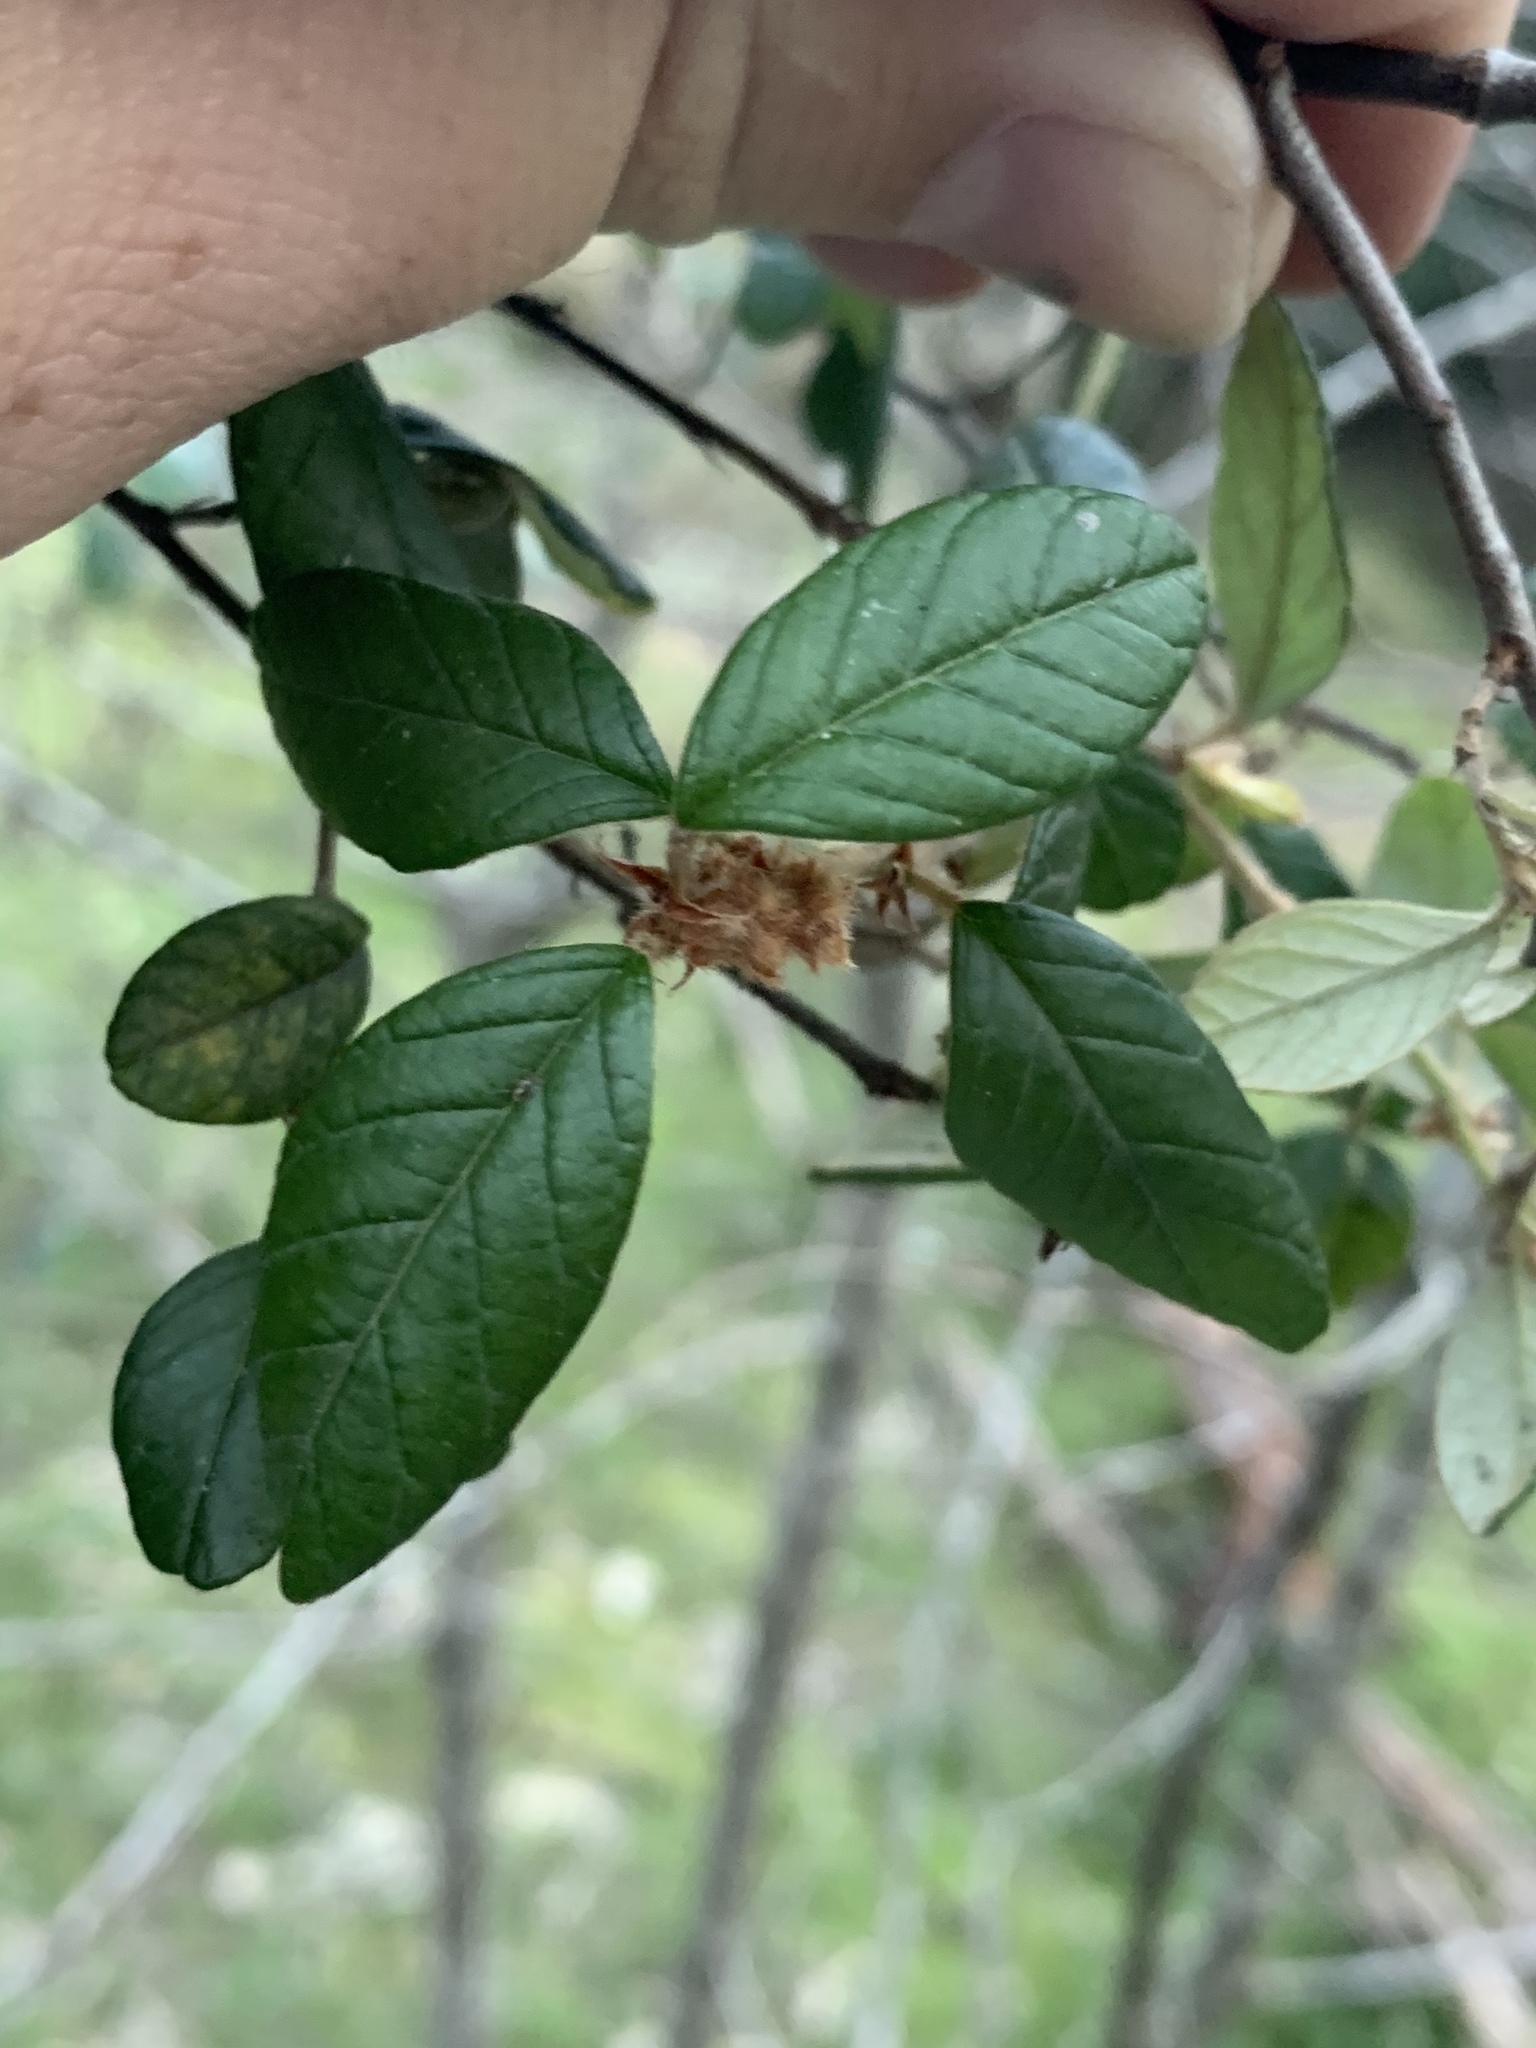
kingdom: Plantae
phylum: Tracheophyta
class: Magnoliopsida
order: Rosales
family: Rhamnaceae
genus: Pomaderris
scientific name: Pomaderris brunnea
